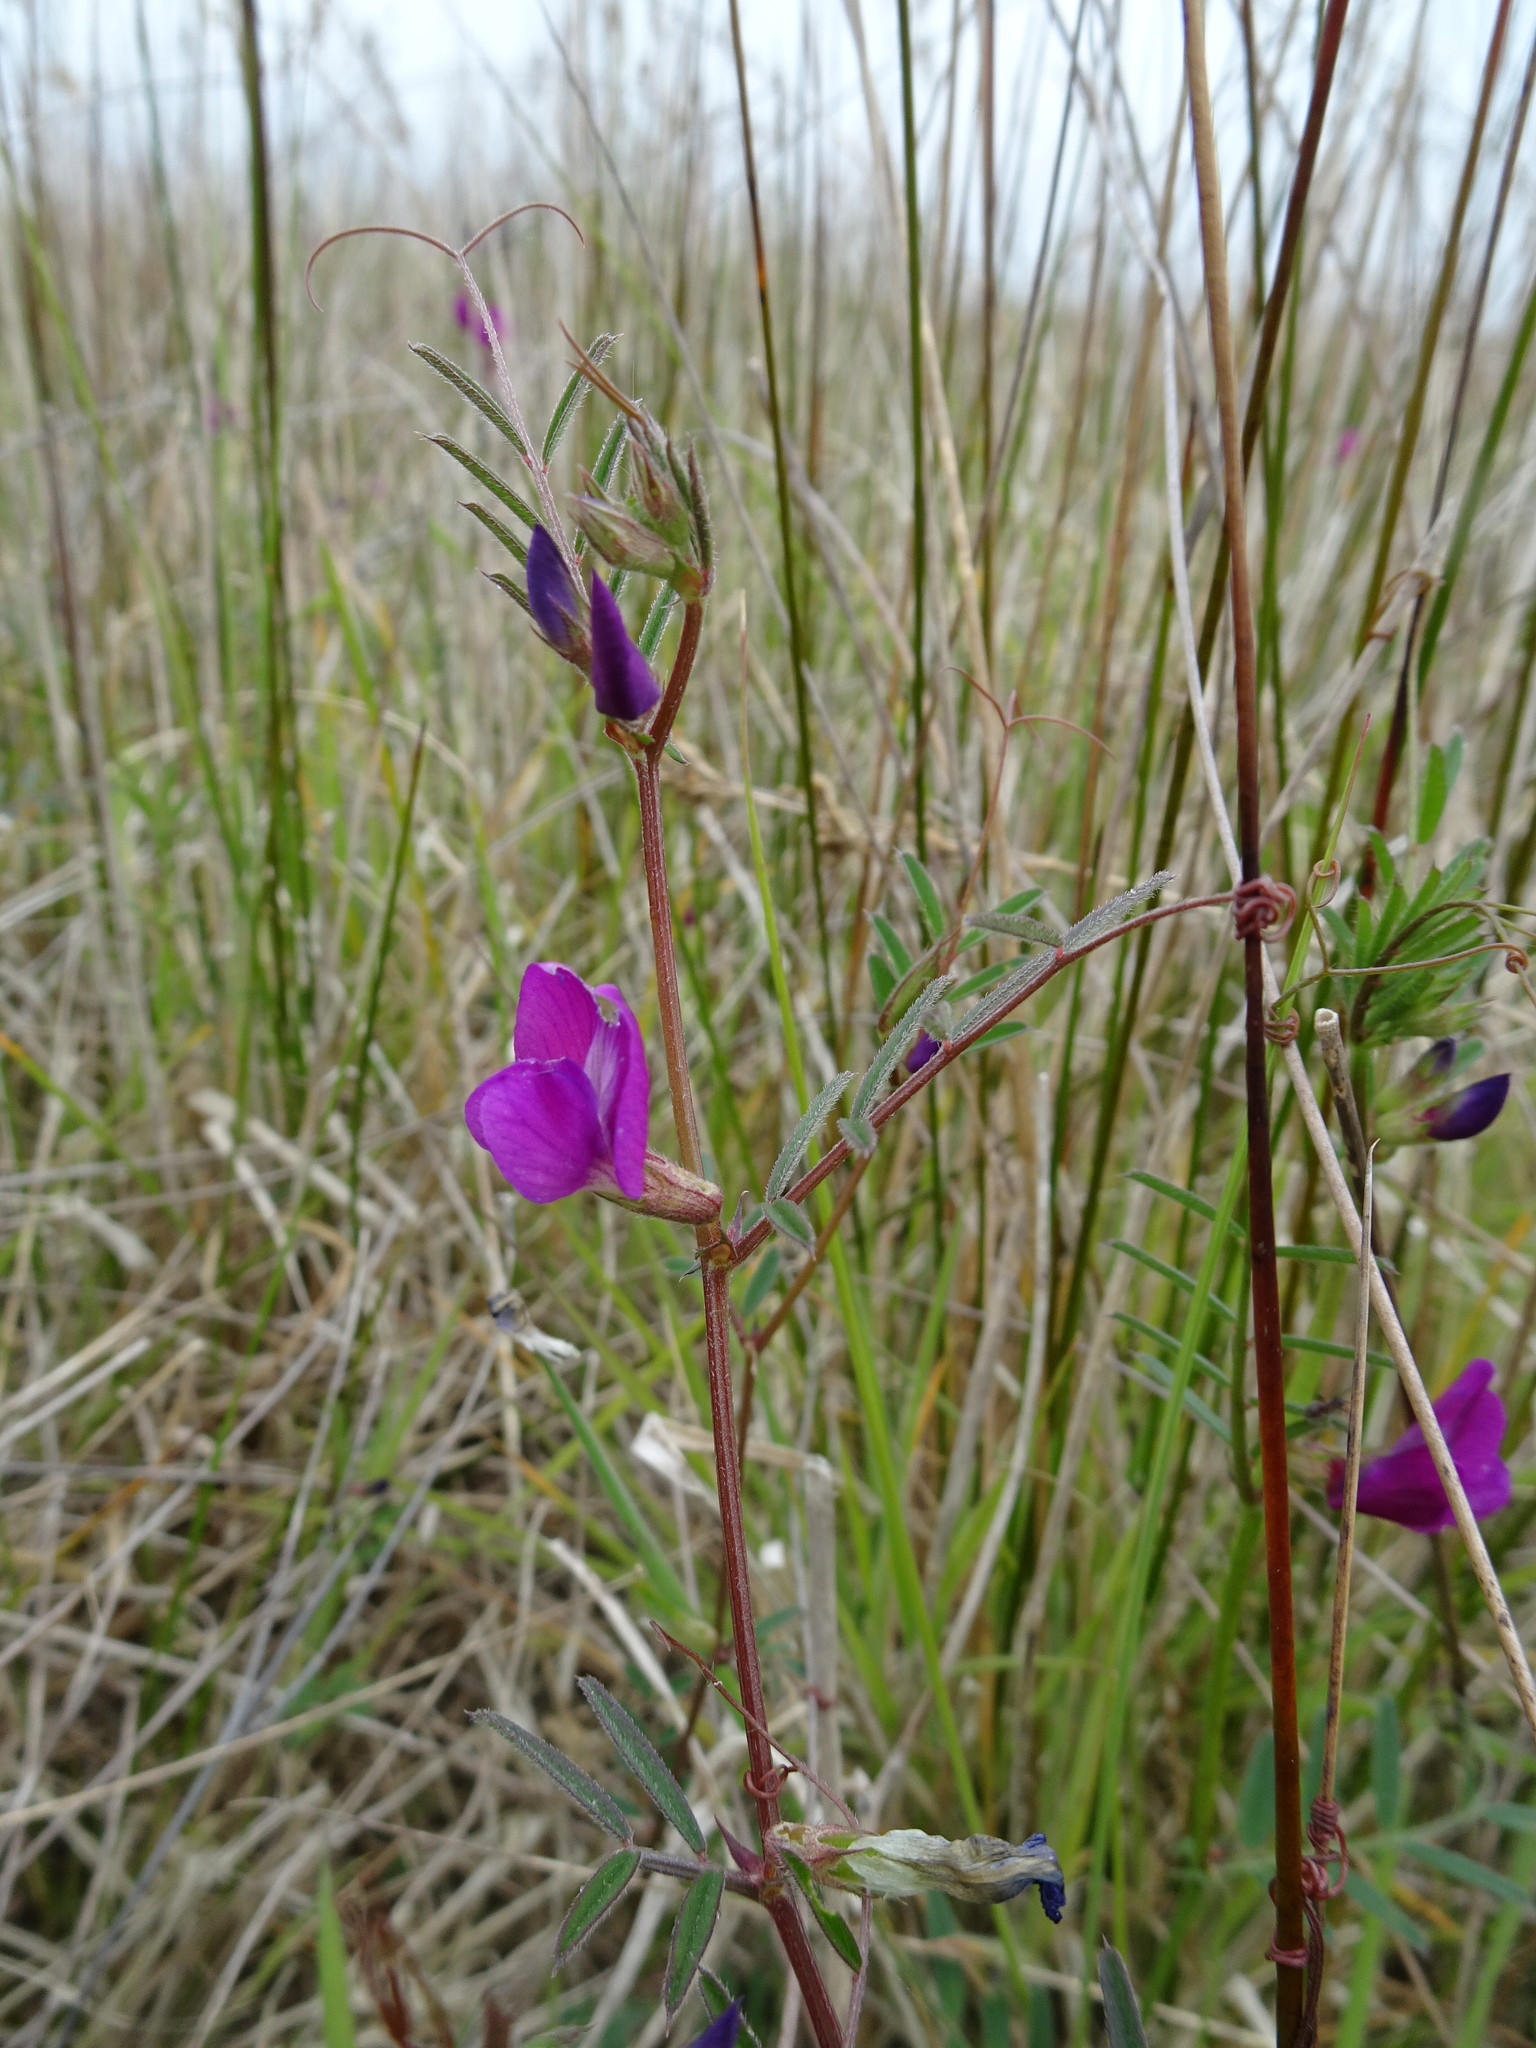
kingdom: Plantae
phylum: Tracheophyta
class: Magnoliopsida
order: Fabales
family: Fabaceae
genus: Vicia
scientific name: Vicia sativa
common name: Garden vetch
